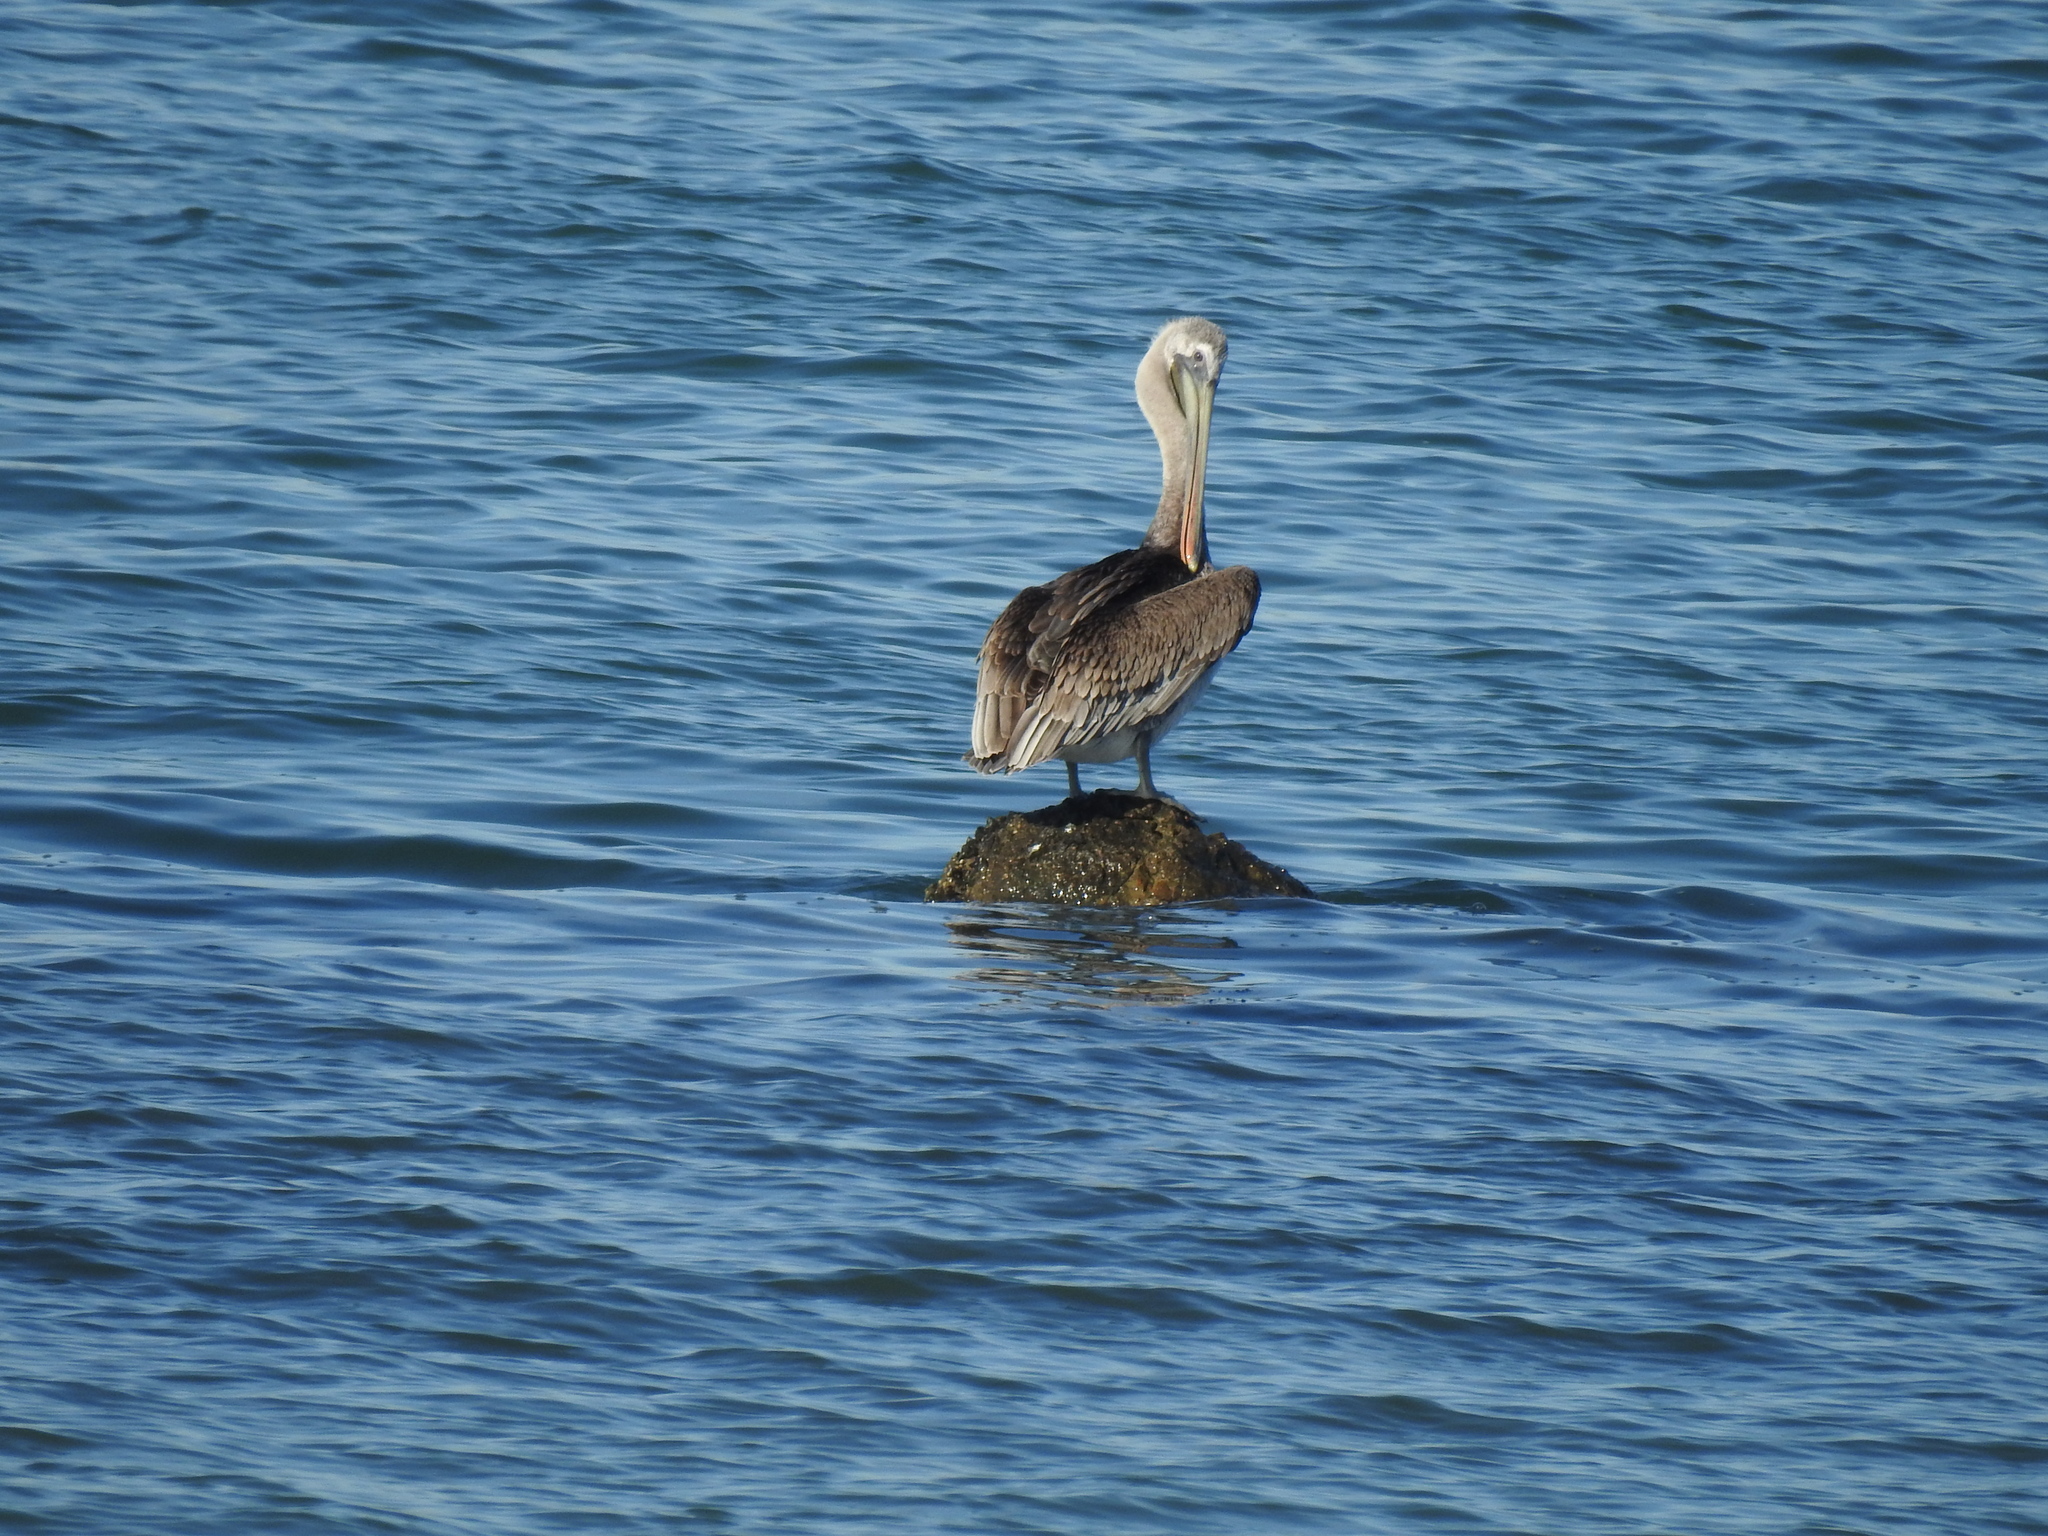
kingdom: Animalia
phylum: Chordata
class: Aves
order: Pelecaniformes
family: Pelecanidae
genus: Pelecanus
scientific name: Pelecanus occidentalis
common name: Brown pelican
